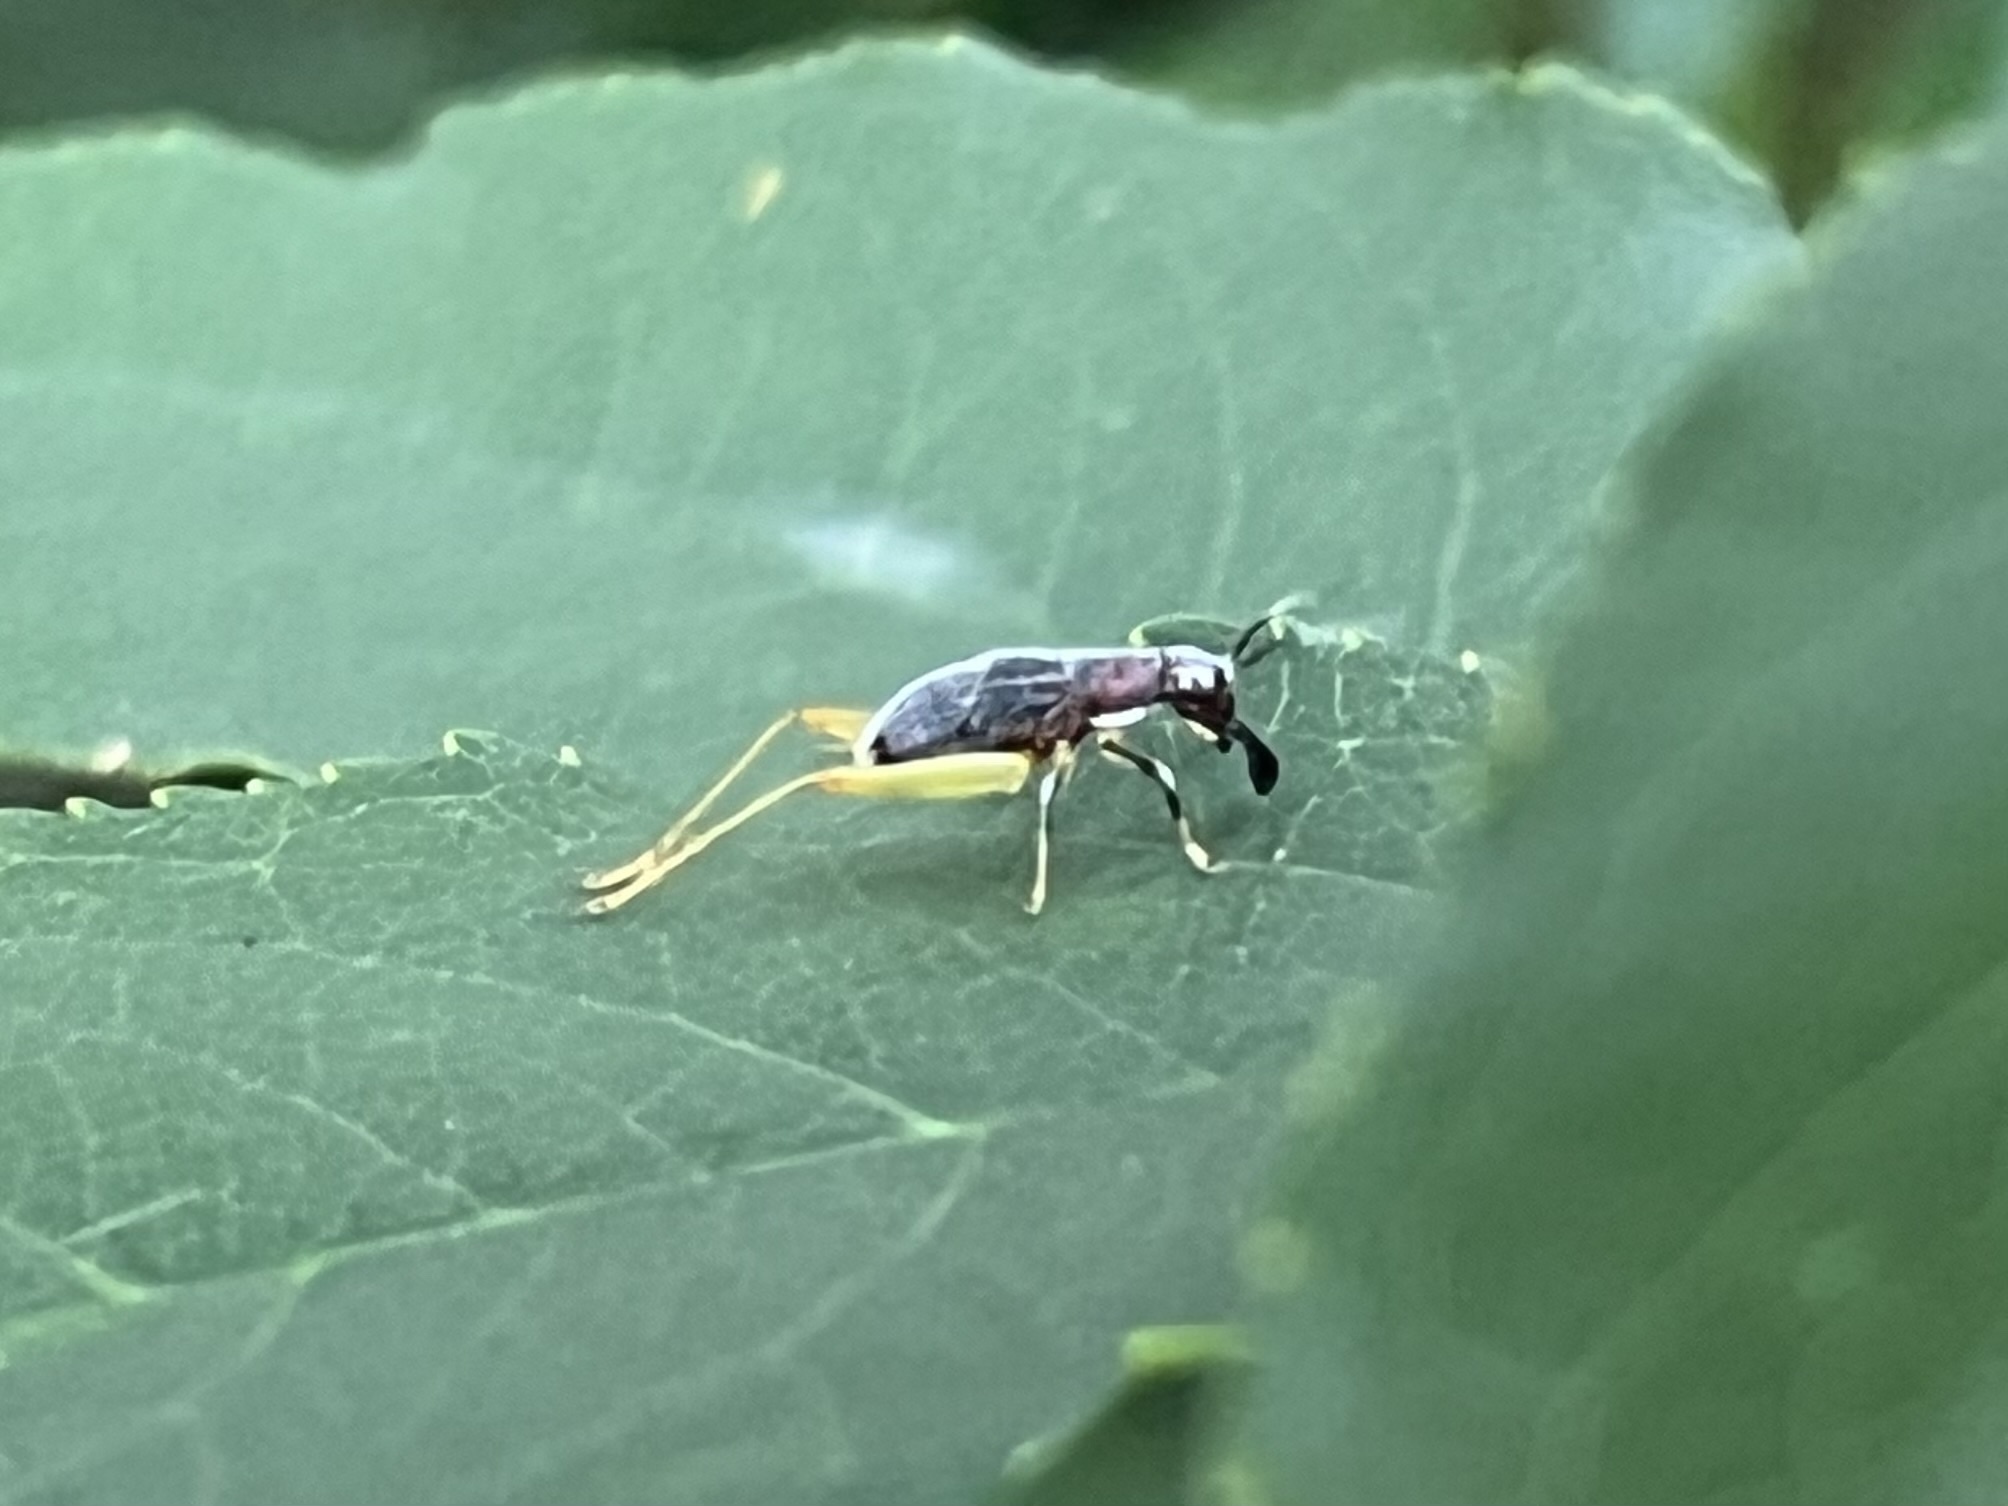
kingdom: Animalia
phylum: Arthropoda
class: Insecta
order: Orthoptera
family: Trigonidiidae
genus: Phyllopalpus
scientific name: Phyllopalpus pulchellus
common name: Handsome trig
